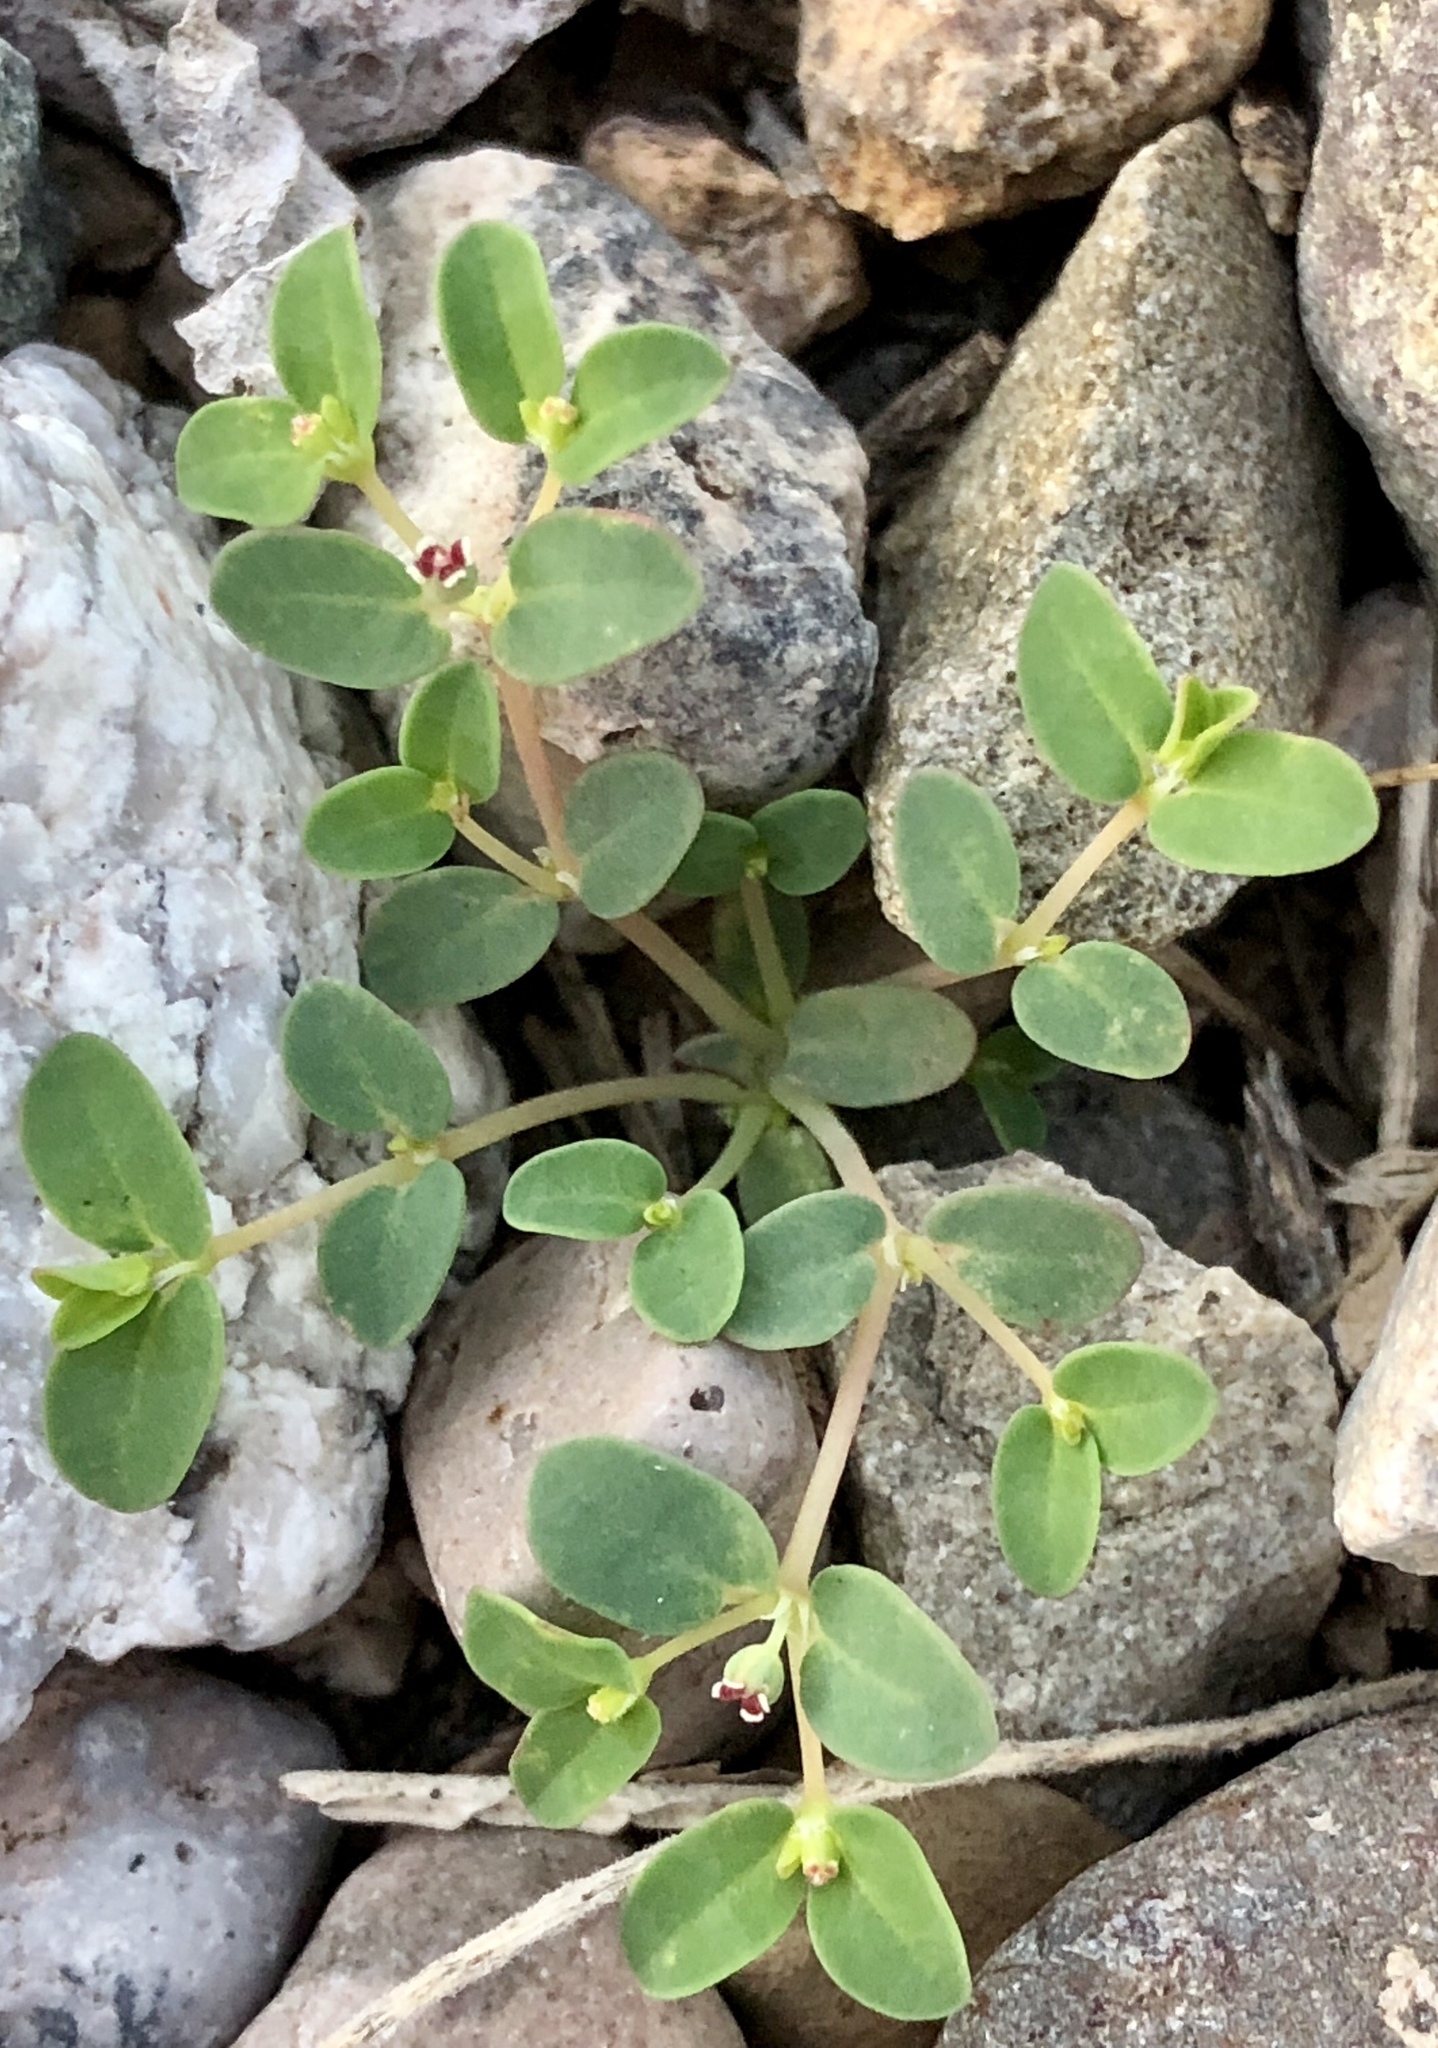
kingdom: Plantae
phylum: Tracheophyta
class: Magnoliopsida
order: Malpighiales
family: Euphorbiaceae
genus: Euphorbia
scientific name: Euphorbia polycarpa
